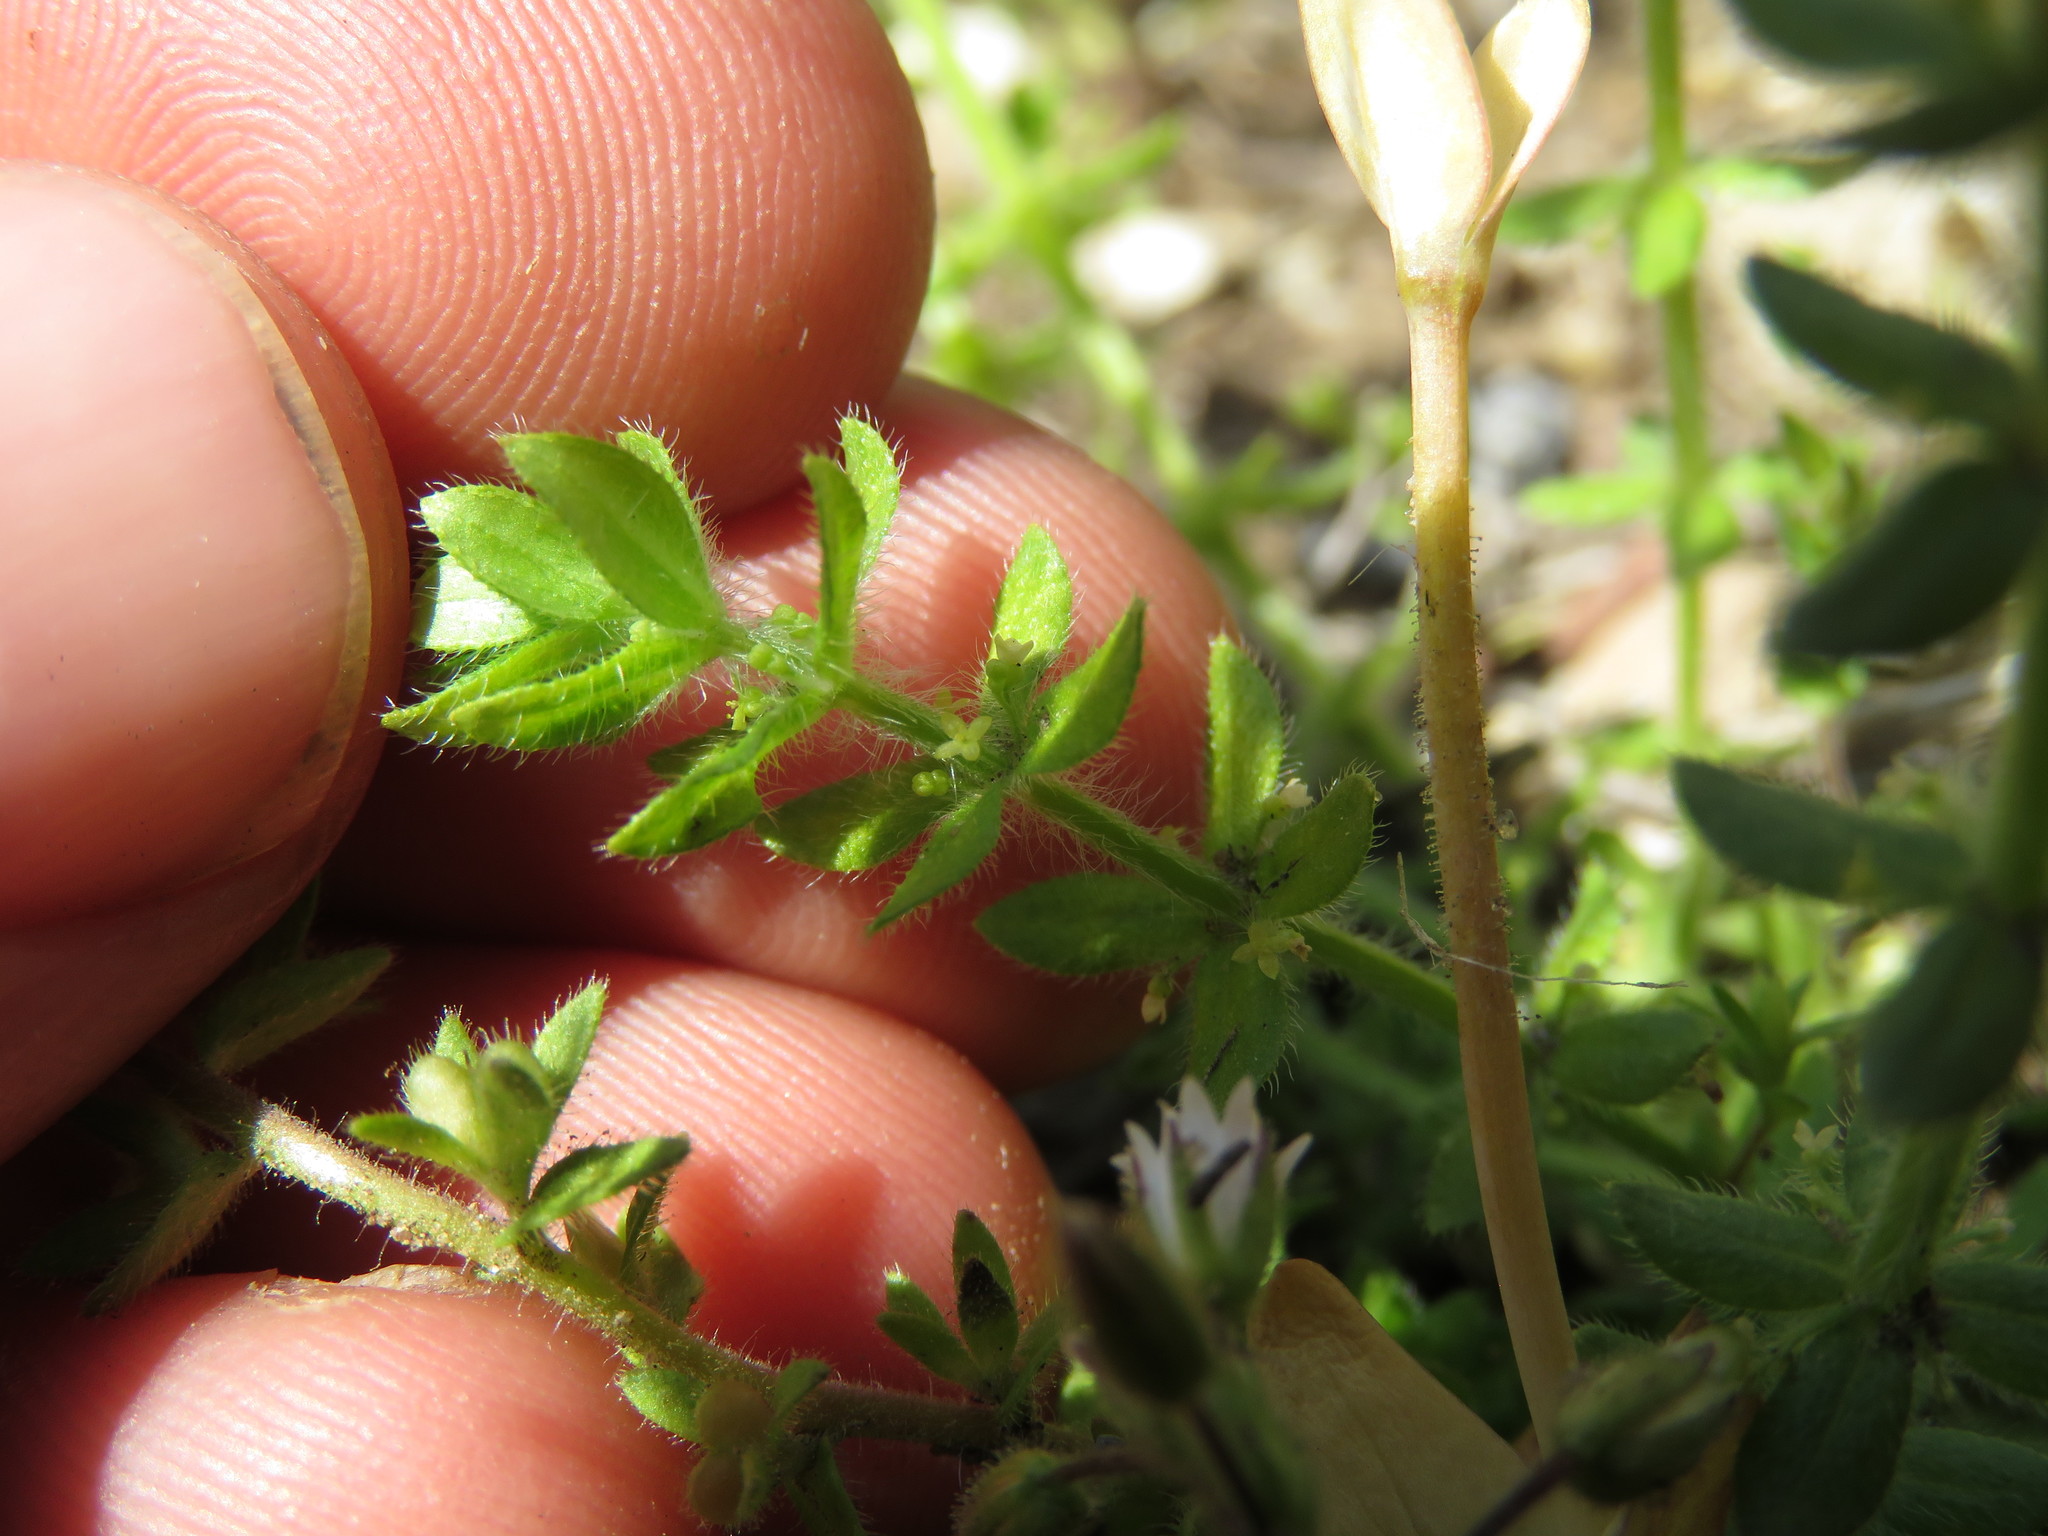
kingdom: Plantae
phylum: Tracheophyta
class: Magnoliopsida
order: Gentianales
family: Rubiaceae
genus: Cruciata
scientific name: Cruciata pedemontana
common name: Piedmont bedstraw
